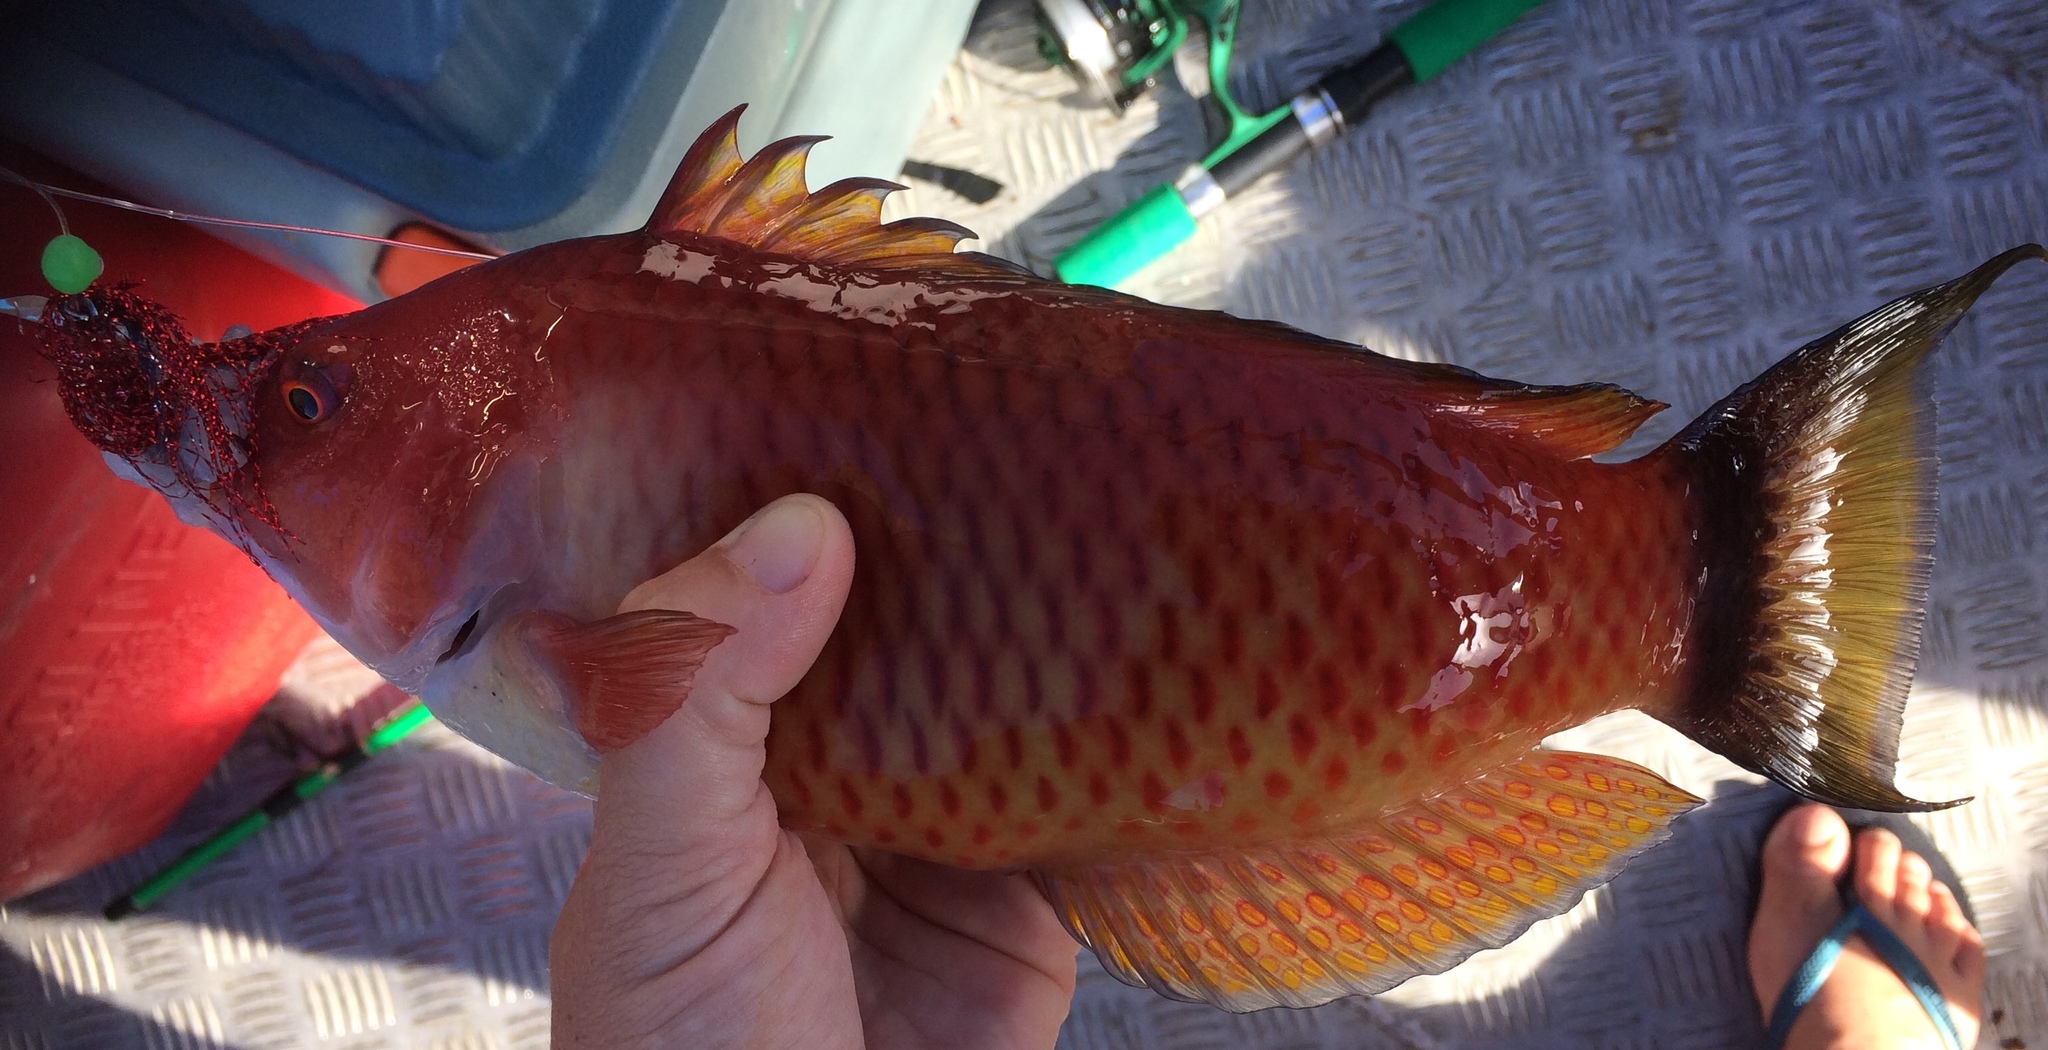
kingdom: Animalia
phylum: Chordata
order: Perciformes
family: Labridae
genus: Pseudolabrus
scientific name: Pseudolabrus miles
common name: Scarlet wrasse
